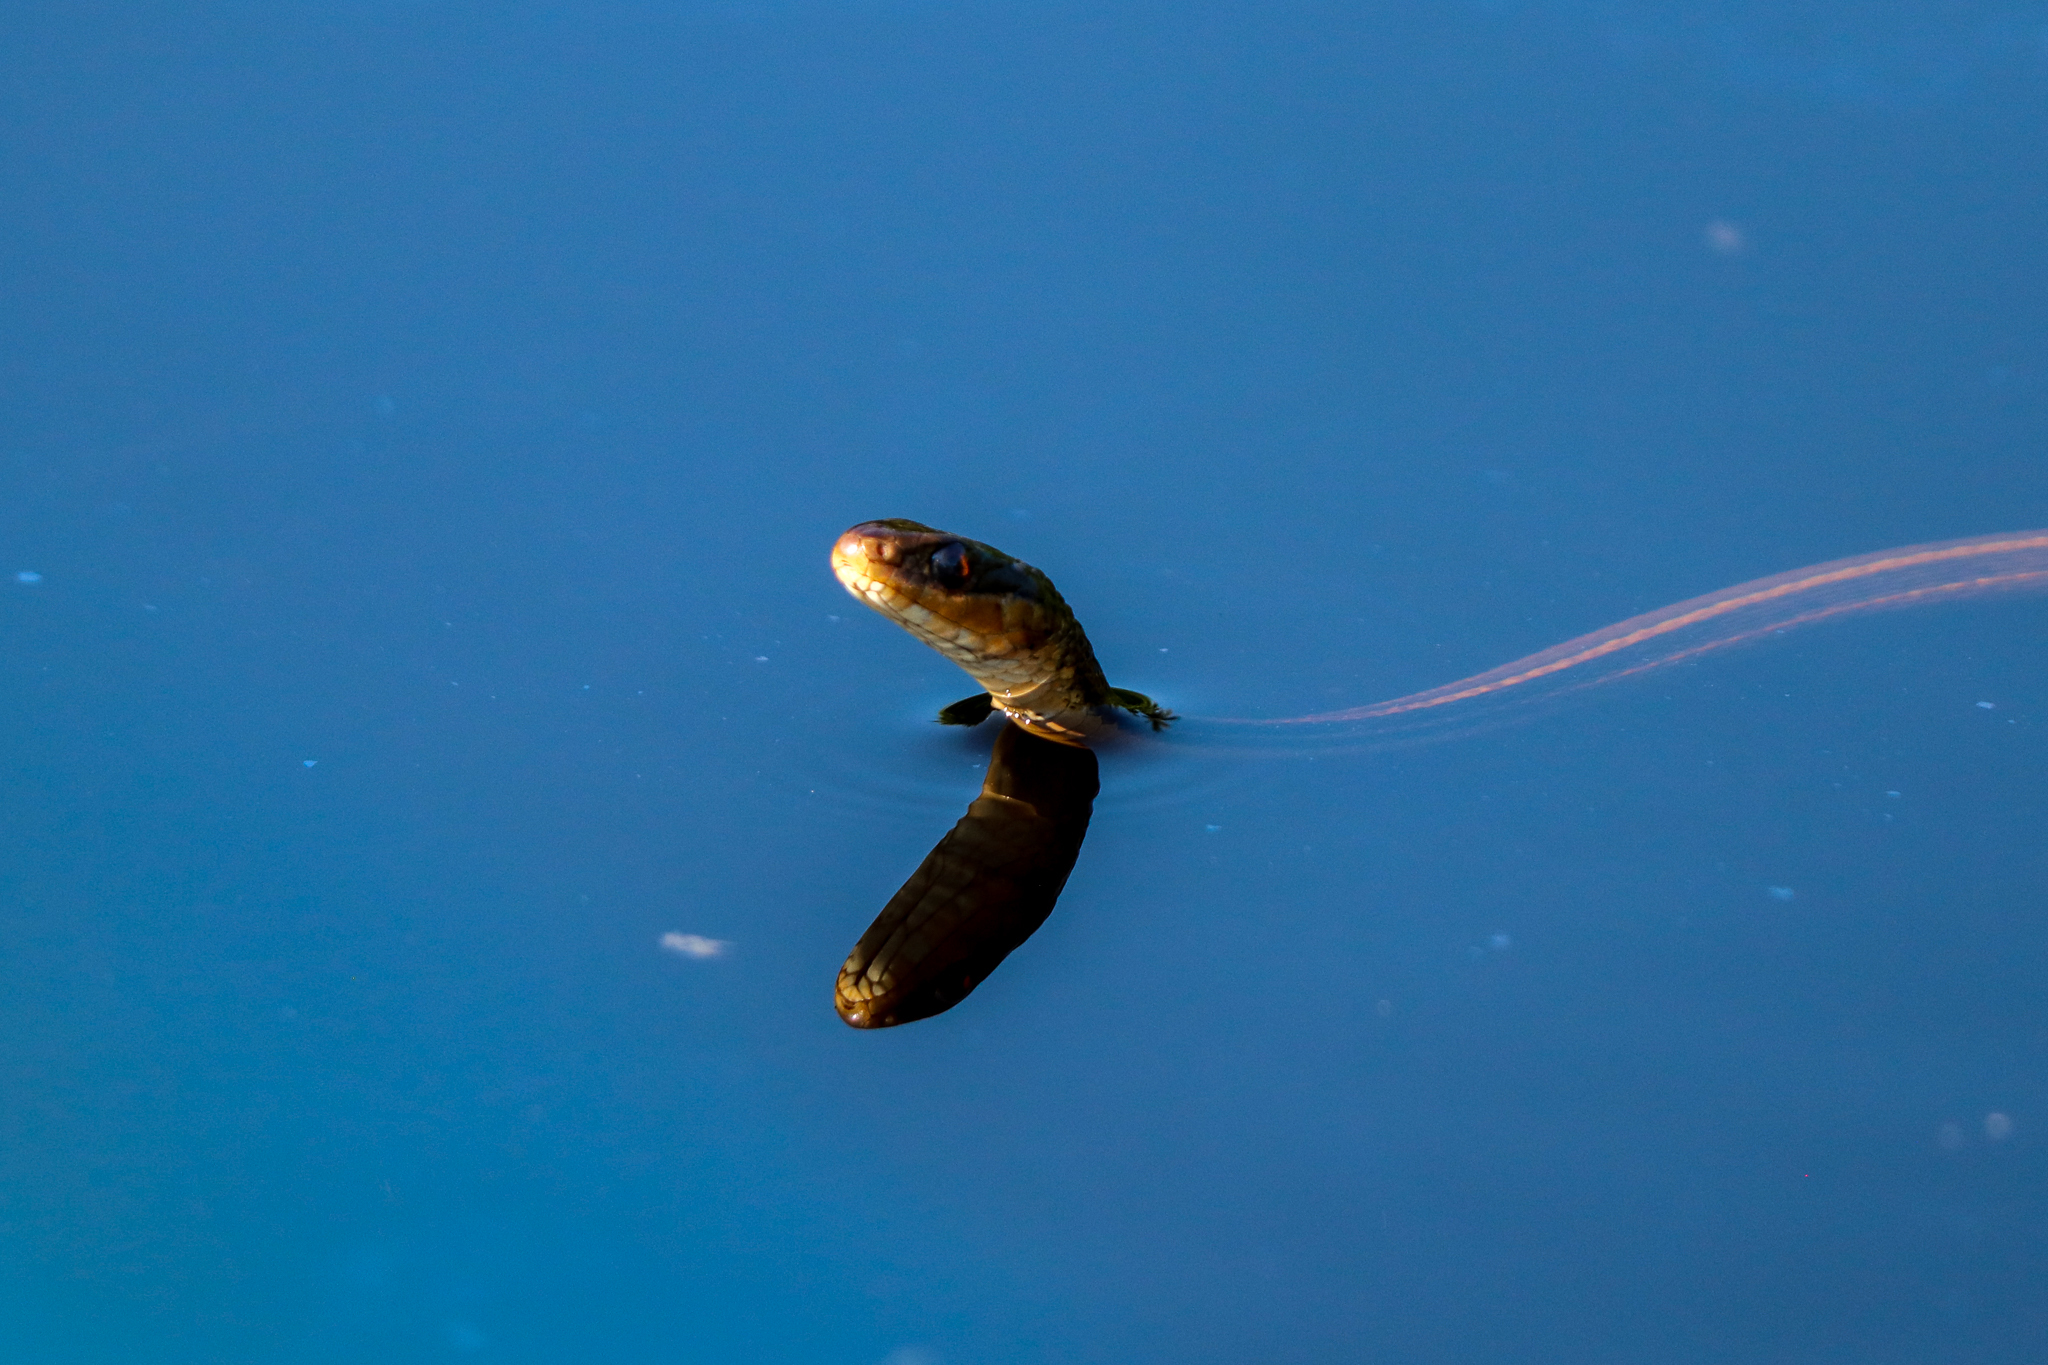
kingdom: Animalia
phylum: Chordata
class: Squamata
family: Colubridae
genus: Thamnophis
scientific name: Thamnophis proximus
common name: Western ribbon snake
